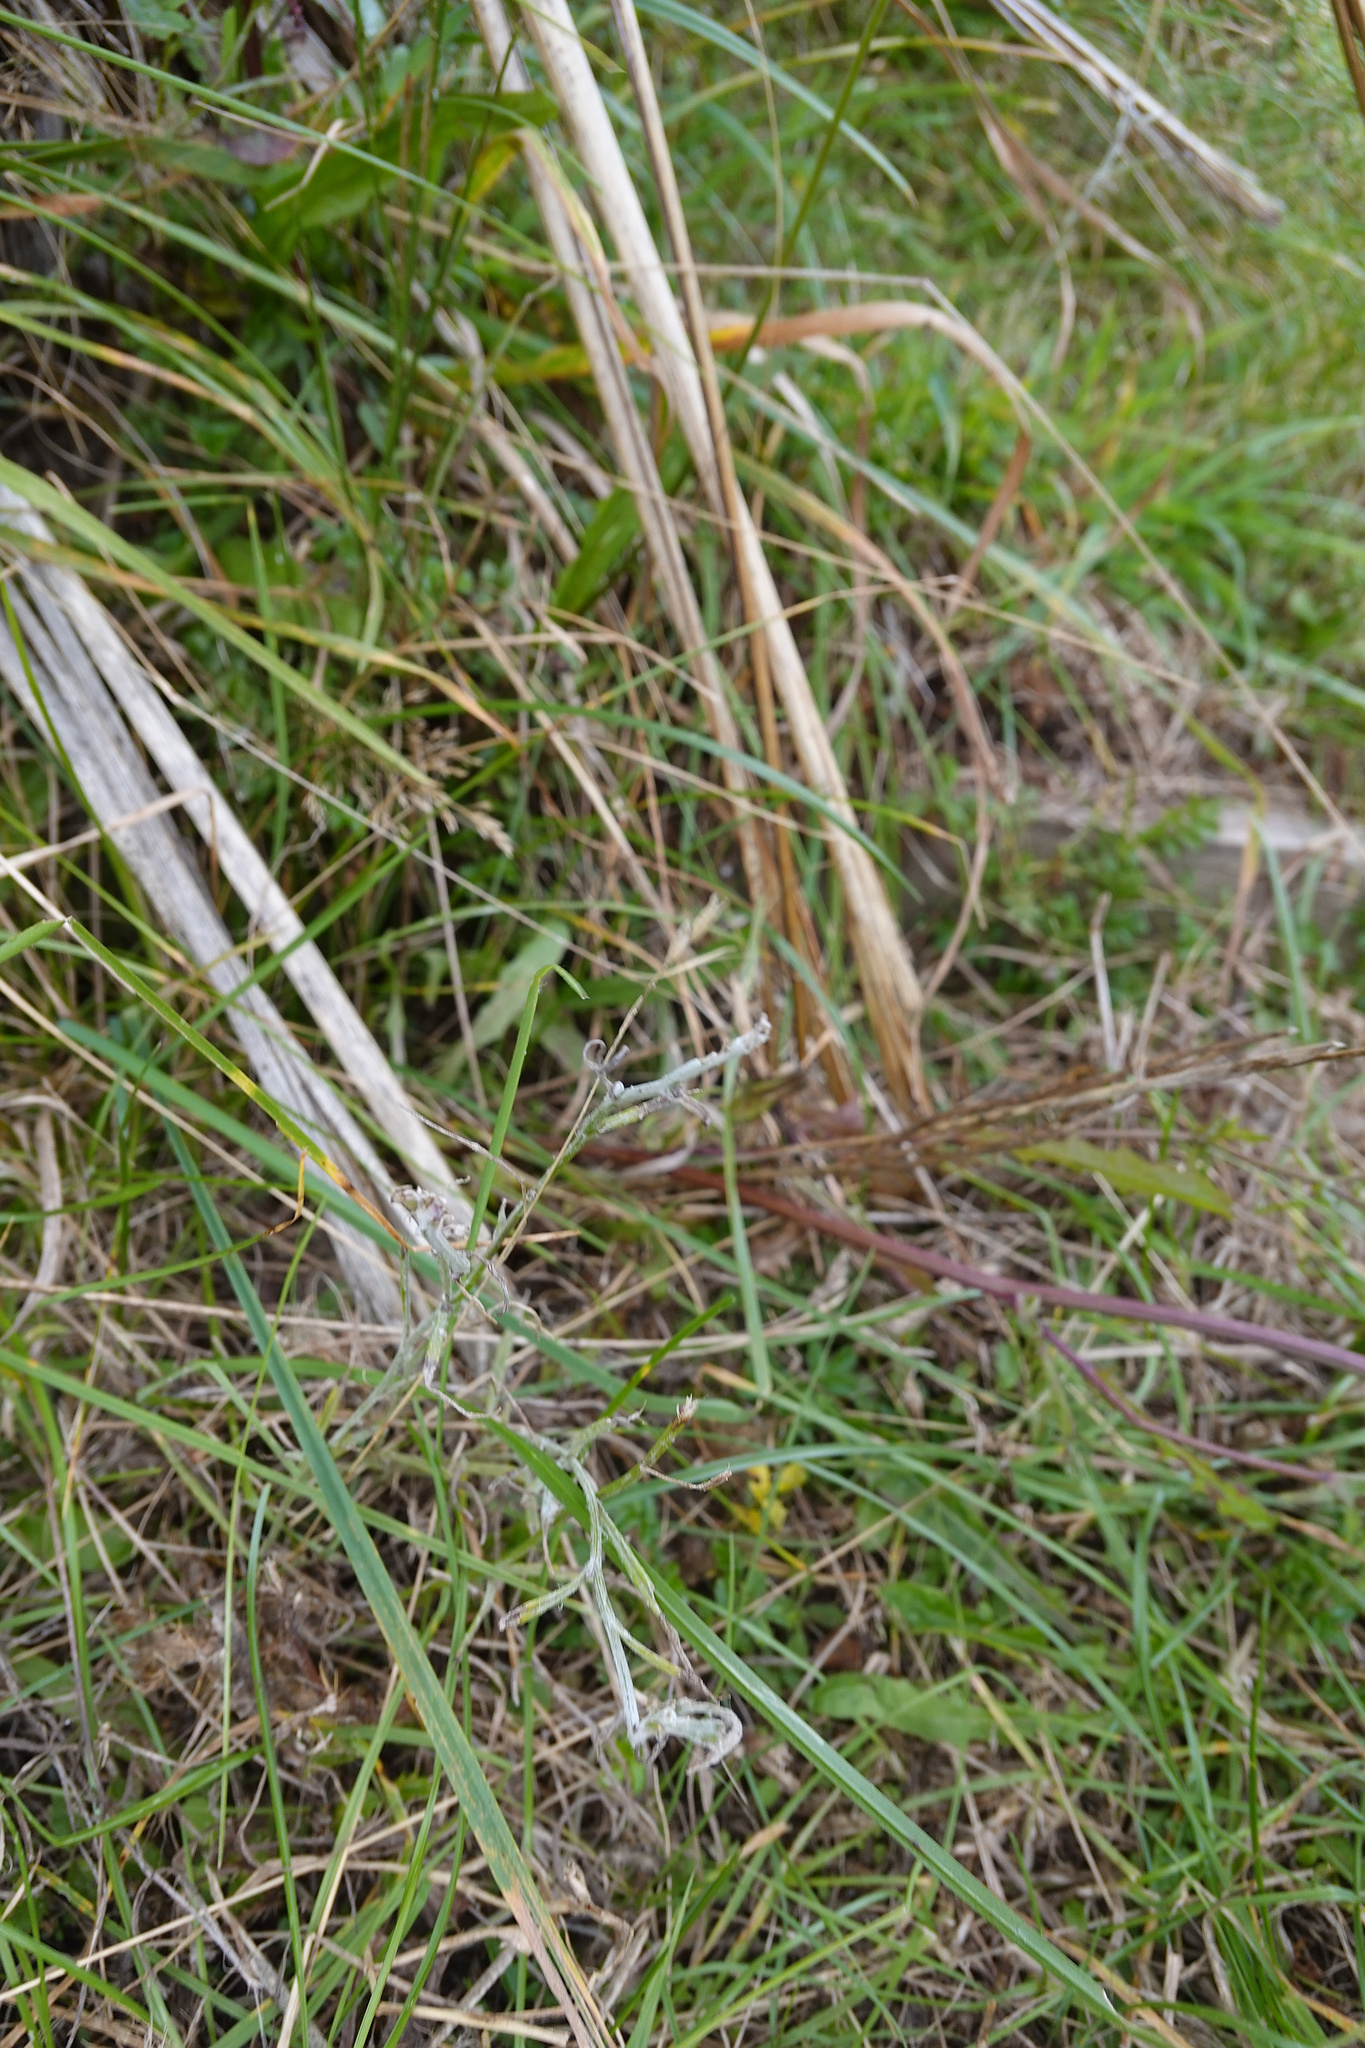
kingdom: Plantae
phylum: Tracheophyta
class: Magnoliopsida
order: Asterales
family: Asteraceae
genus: Senecio
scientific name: Senecio quadridentatus
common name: Cotton fireweed
